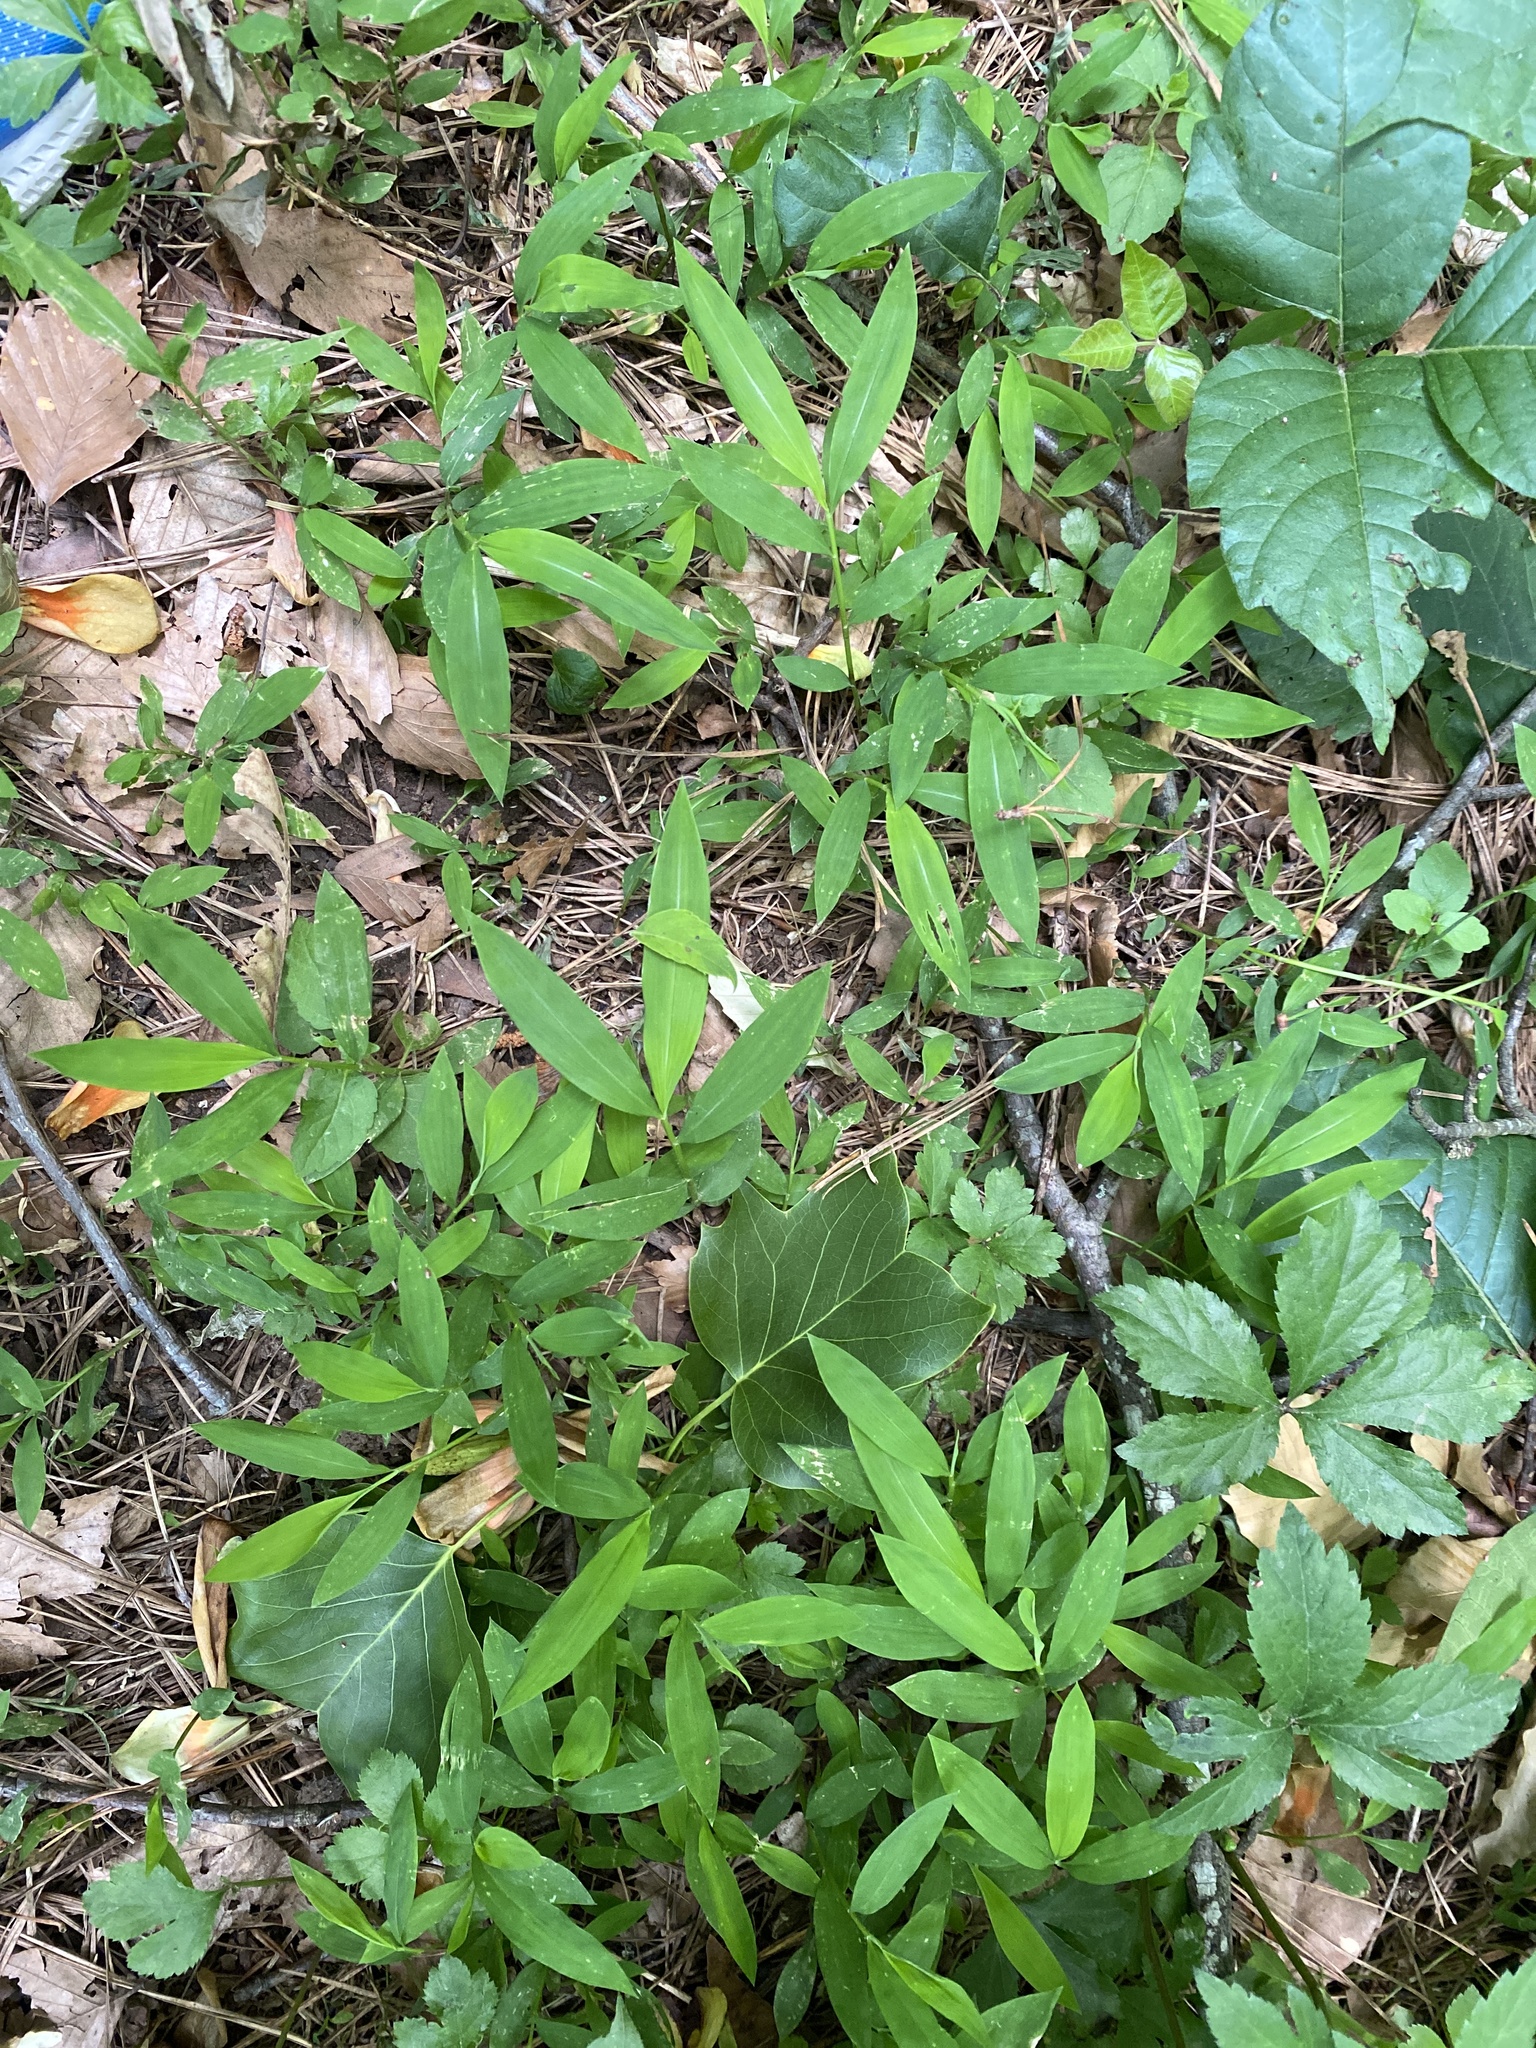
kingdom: Plantae
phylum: Tracheophyta
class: Liliopsida
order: Poales
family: Poaceae
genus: Microstegium
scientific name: Microstegium vimineum
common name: Japanese stiltgrass
